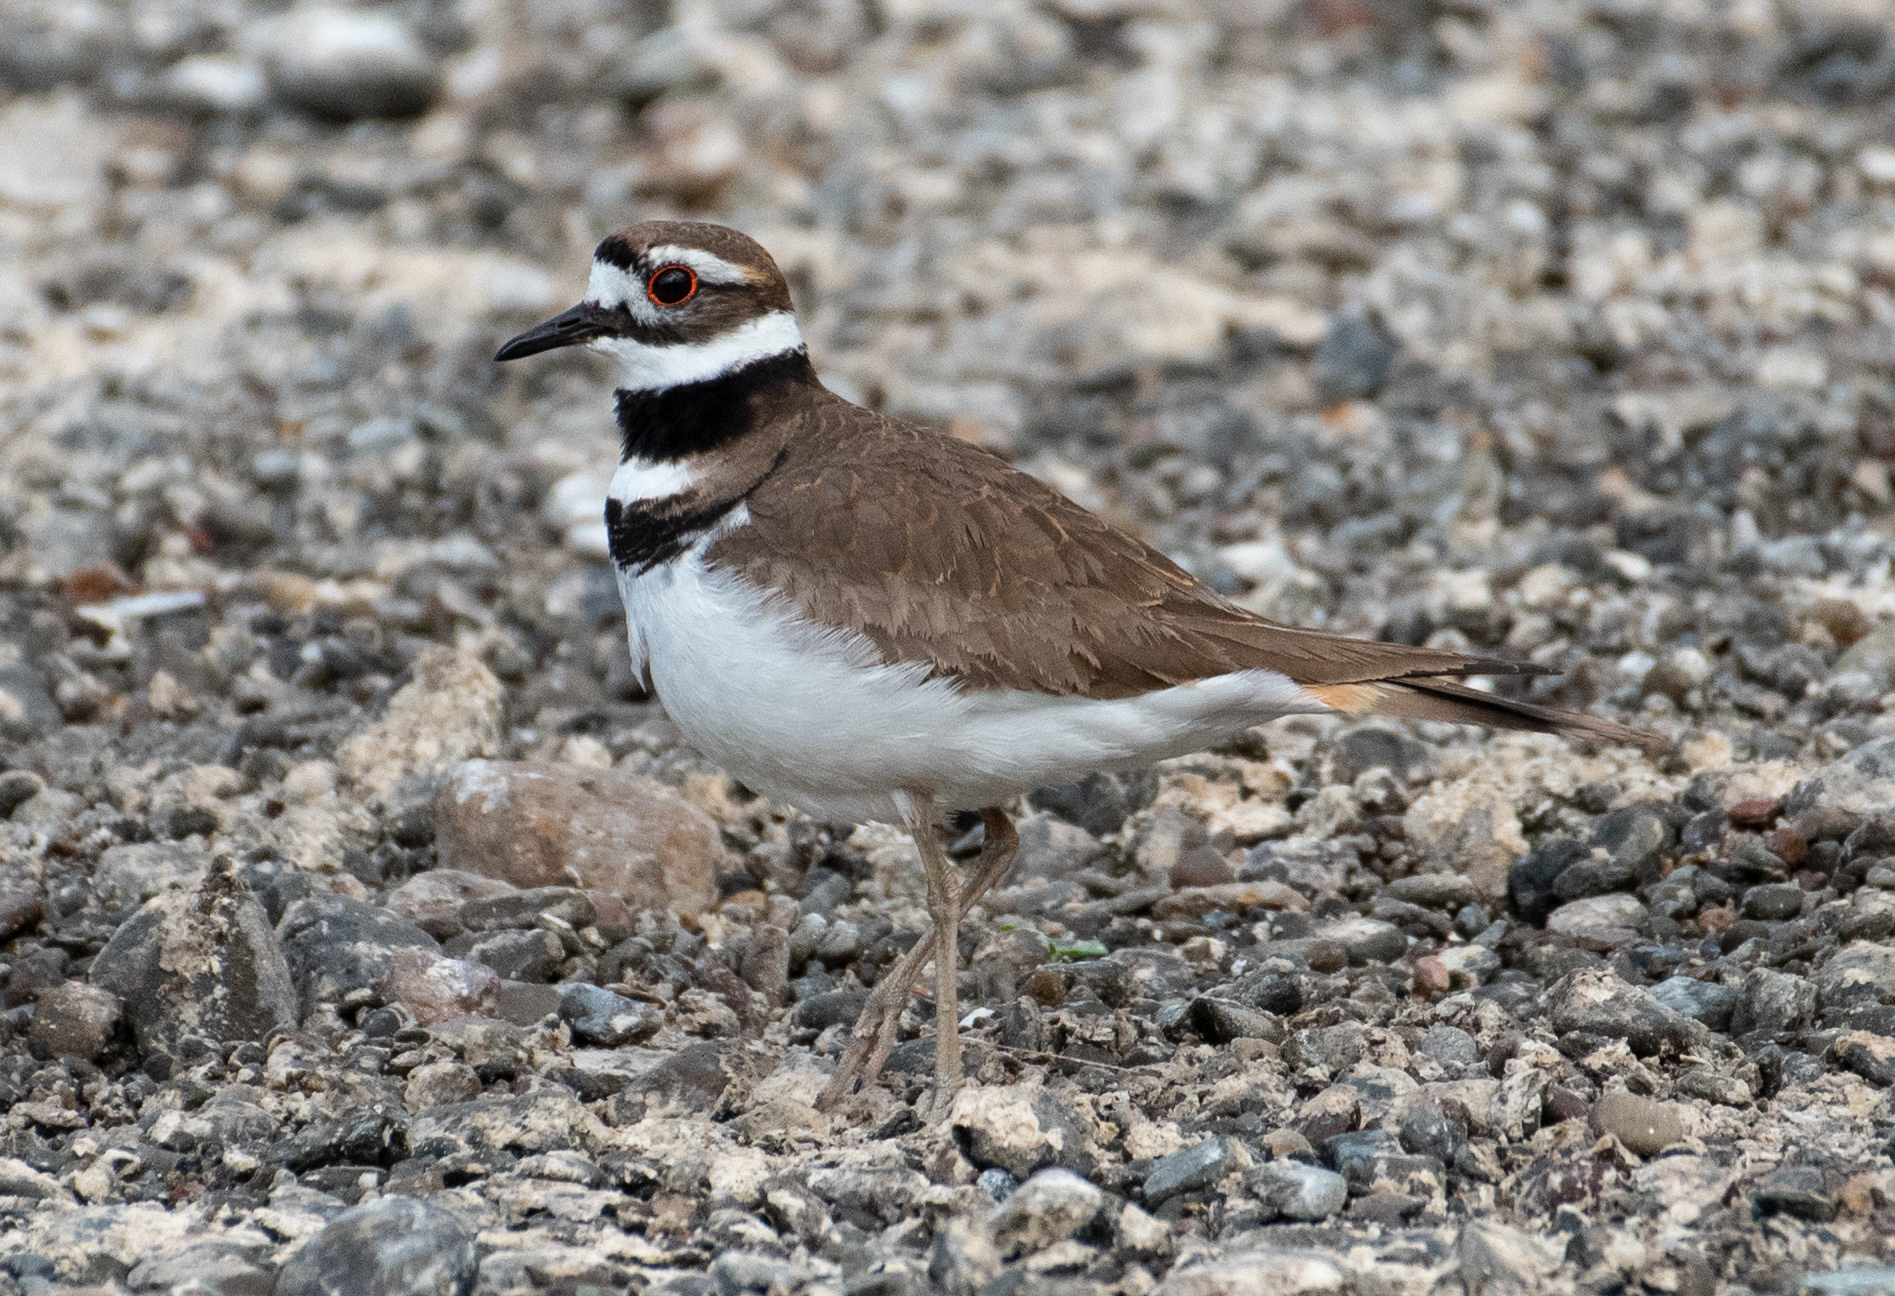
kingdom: Animalia
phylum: Chordata
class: Aves
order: Charadriiformes
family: Charadriidae
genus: Charadrius
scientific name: Charadrius vociferus
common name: Killdeer
